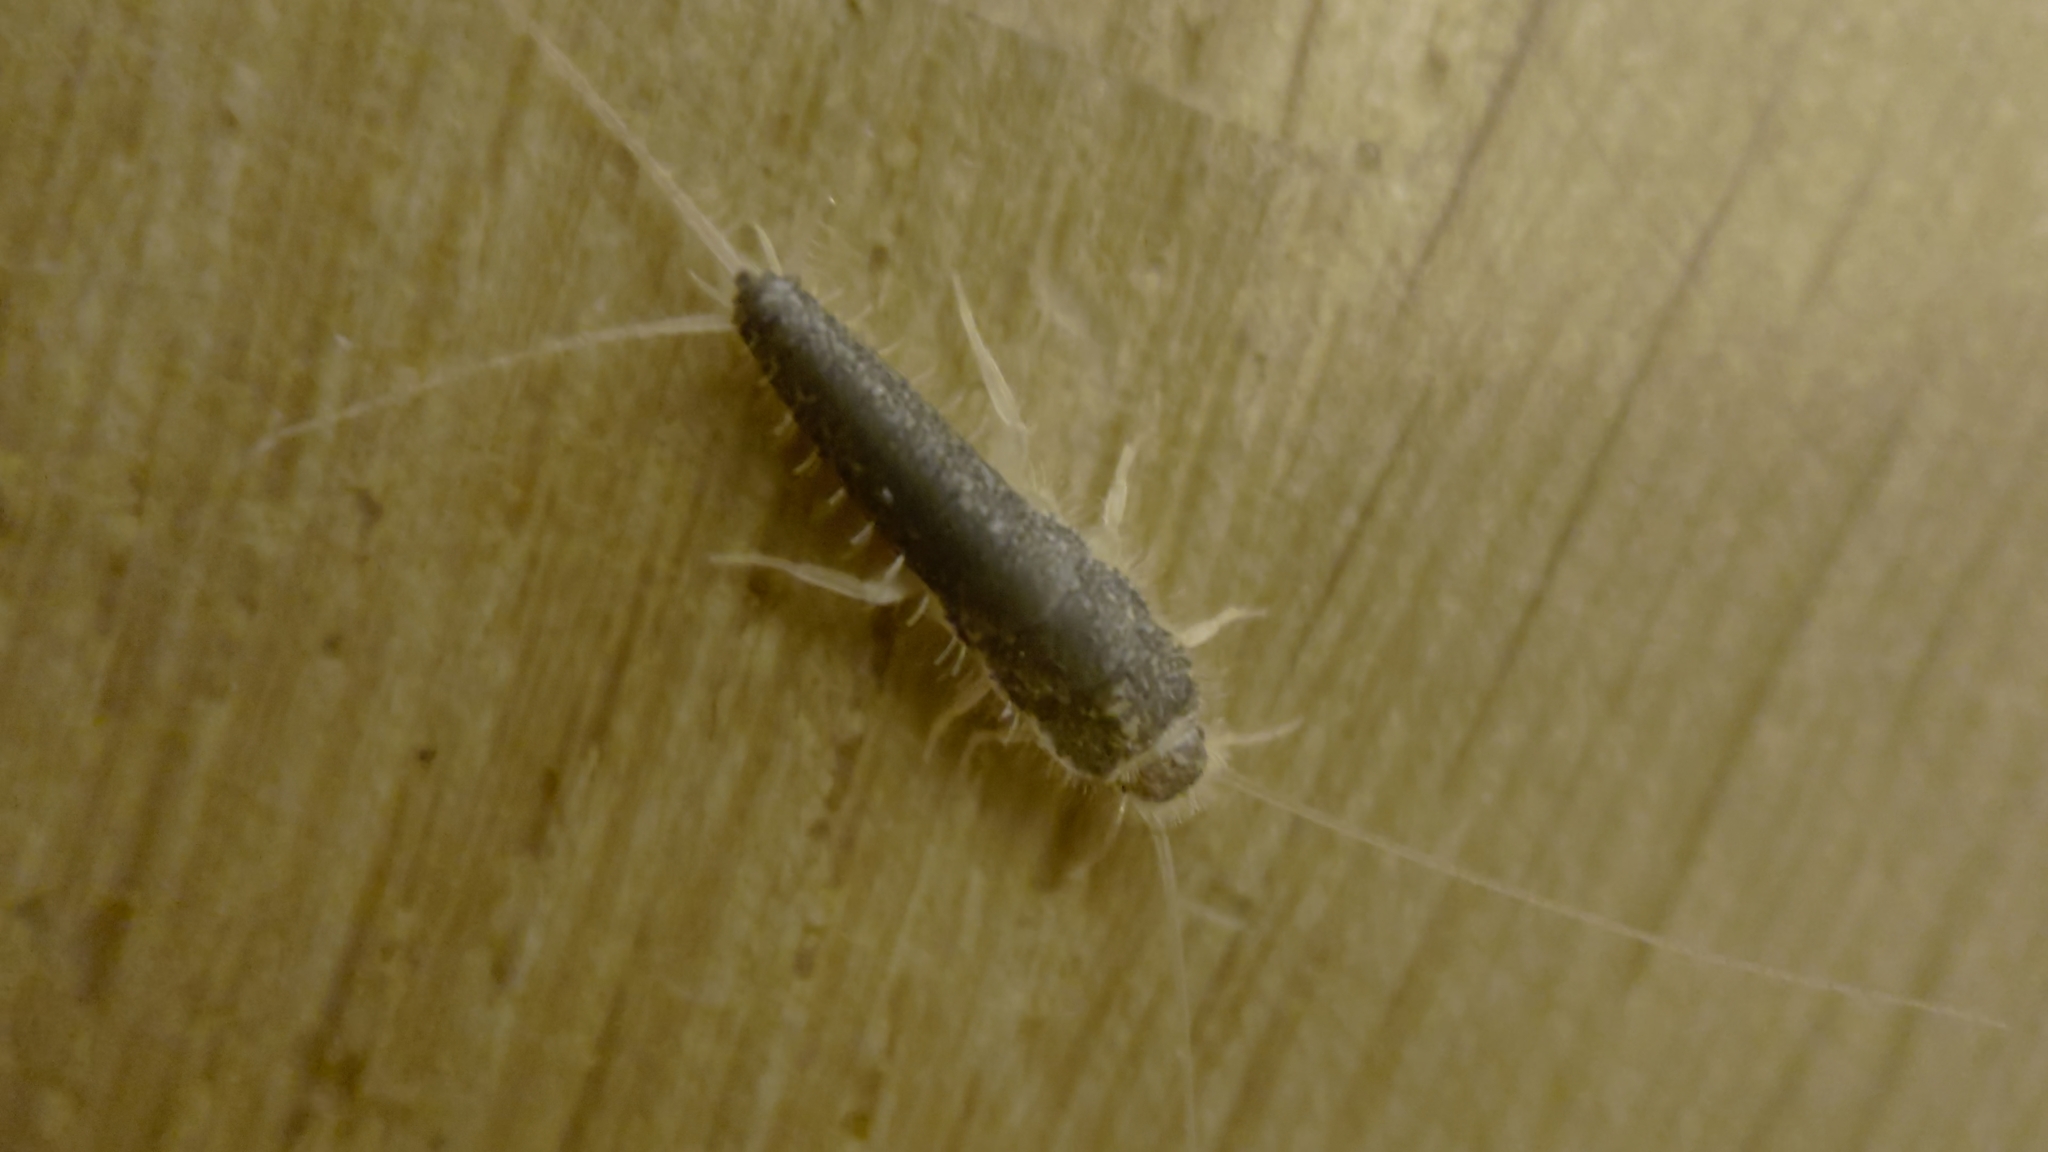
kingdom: Animalia
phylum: Arthropoda
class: Insecta
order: Zygentoma
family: Lepismatidae
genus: Ctenolepisma
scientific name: Ctenolepisma longicaudatum
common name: Silverfish
